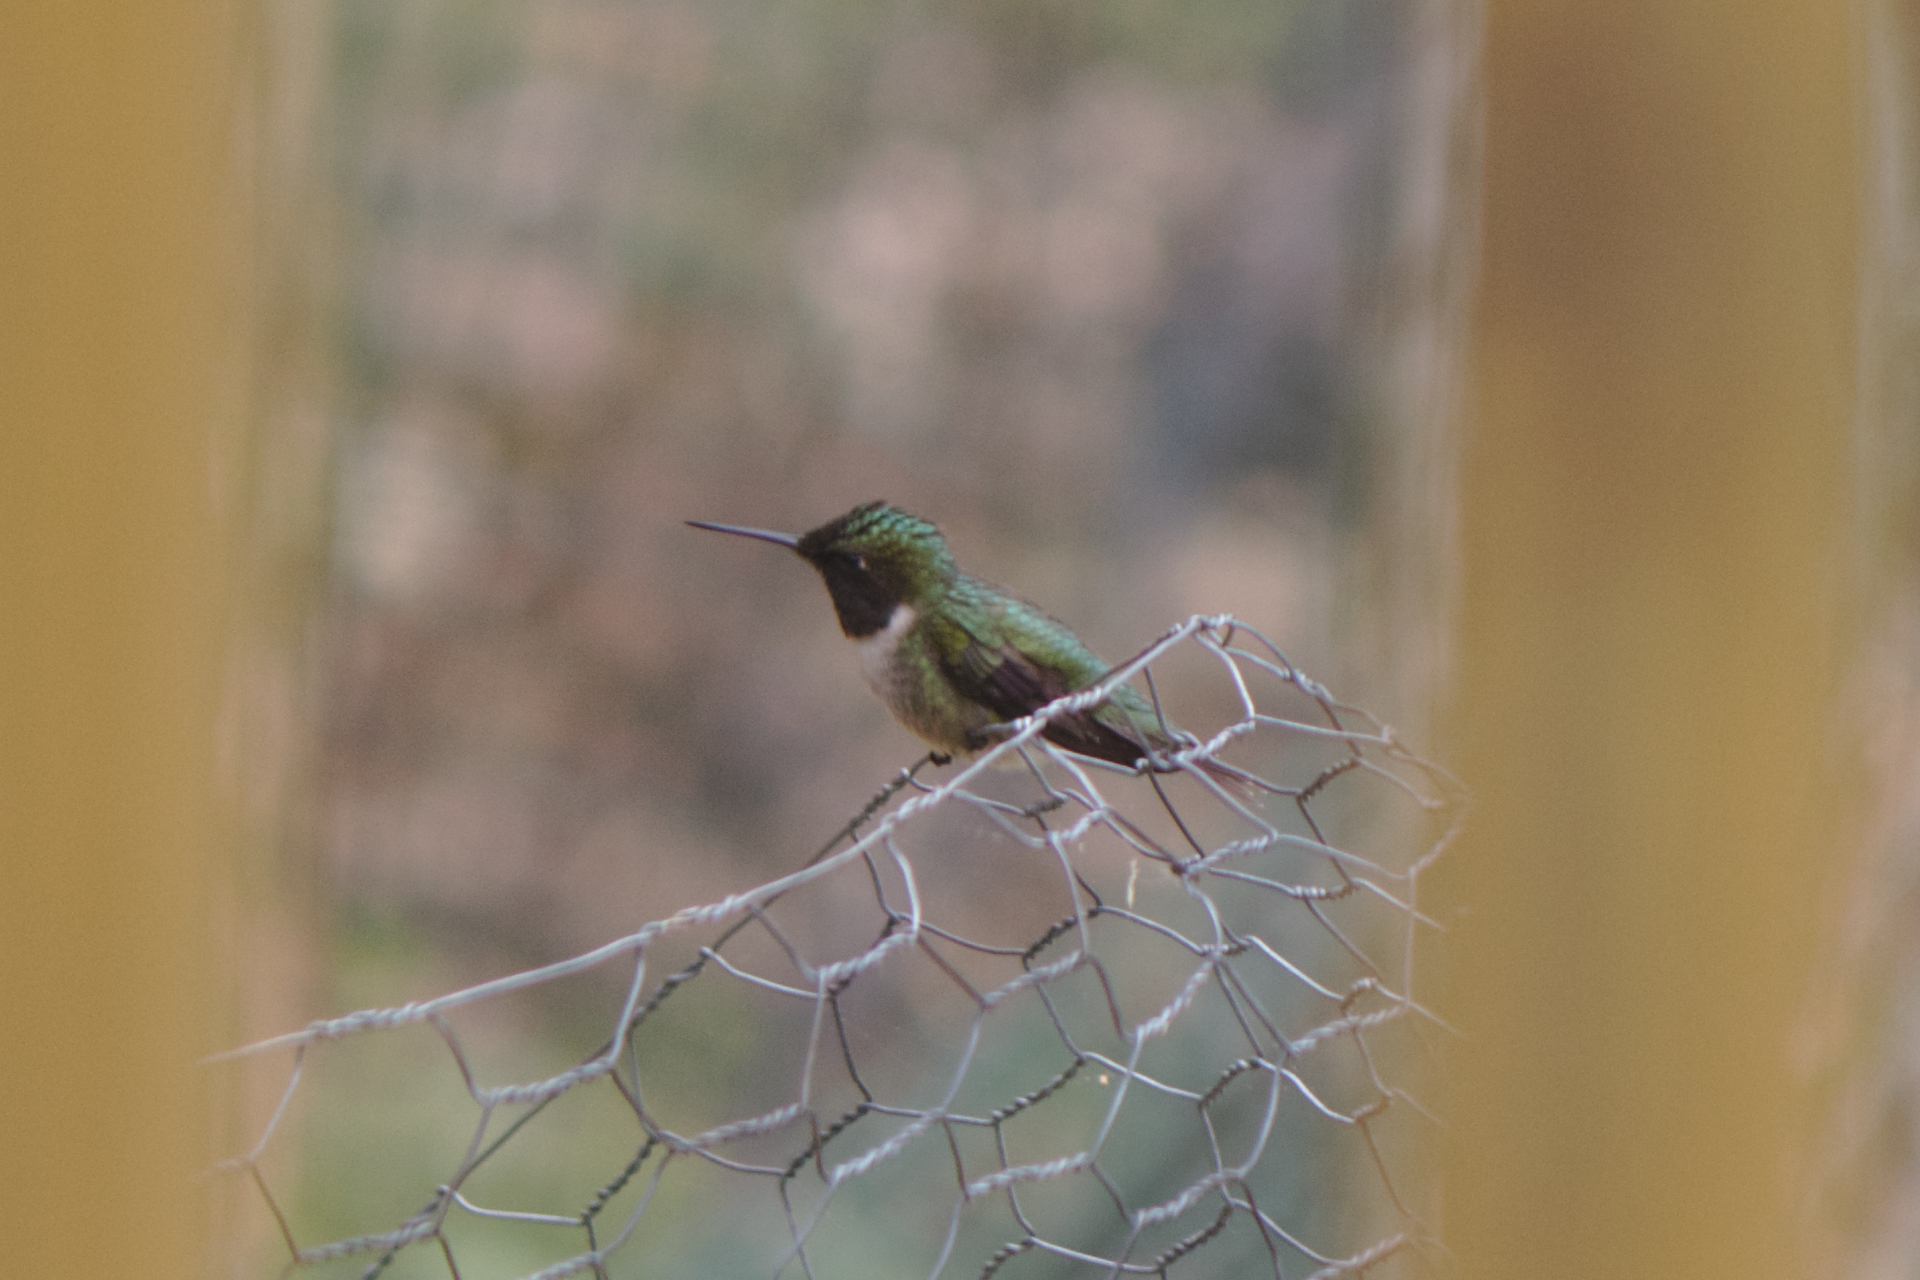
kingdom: Animalia
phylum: Chordata
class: Aves
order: Apodiformes
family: Trochilidae
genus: Archilochus
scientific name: Archilochus colubris
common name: Ruby-throated hummingbird
